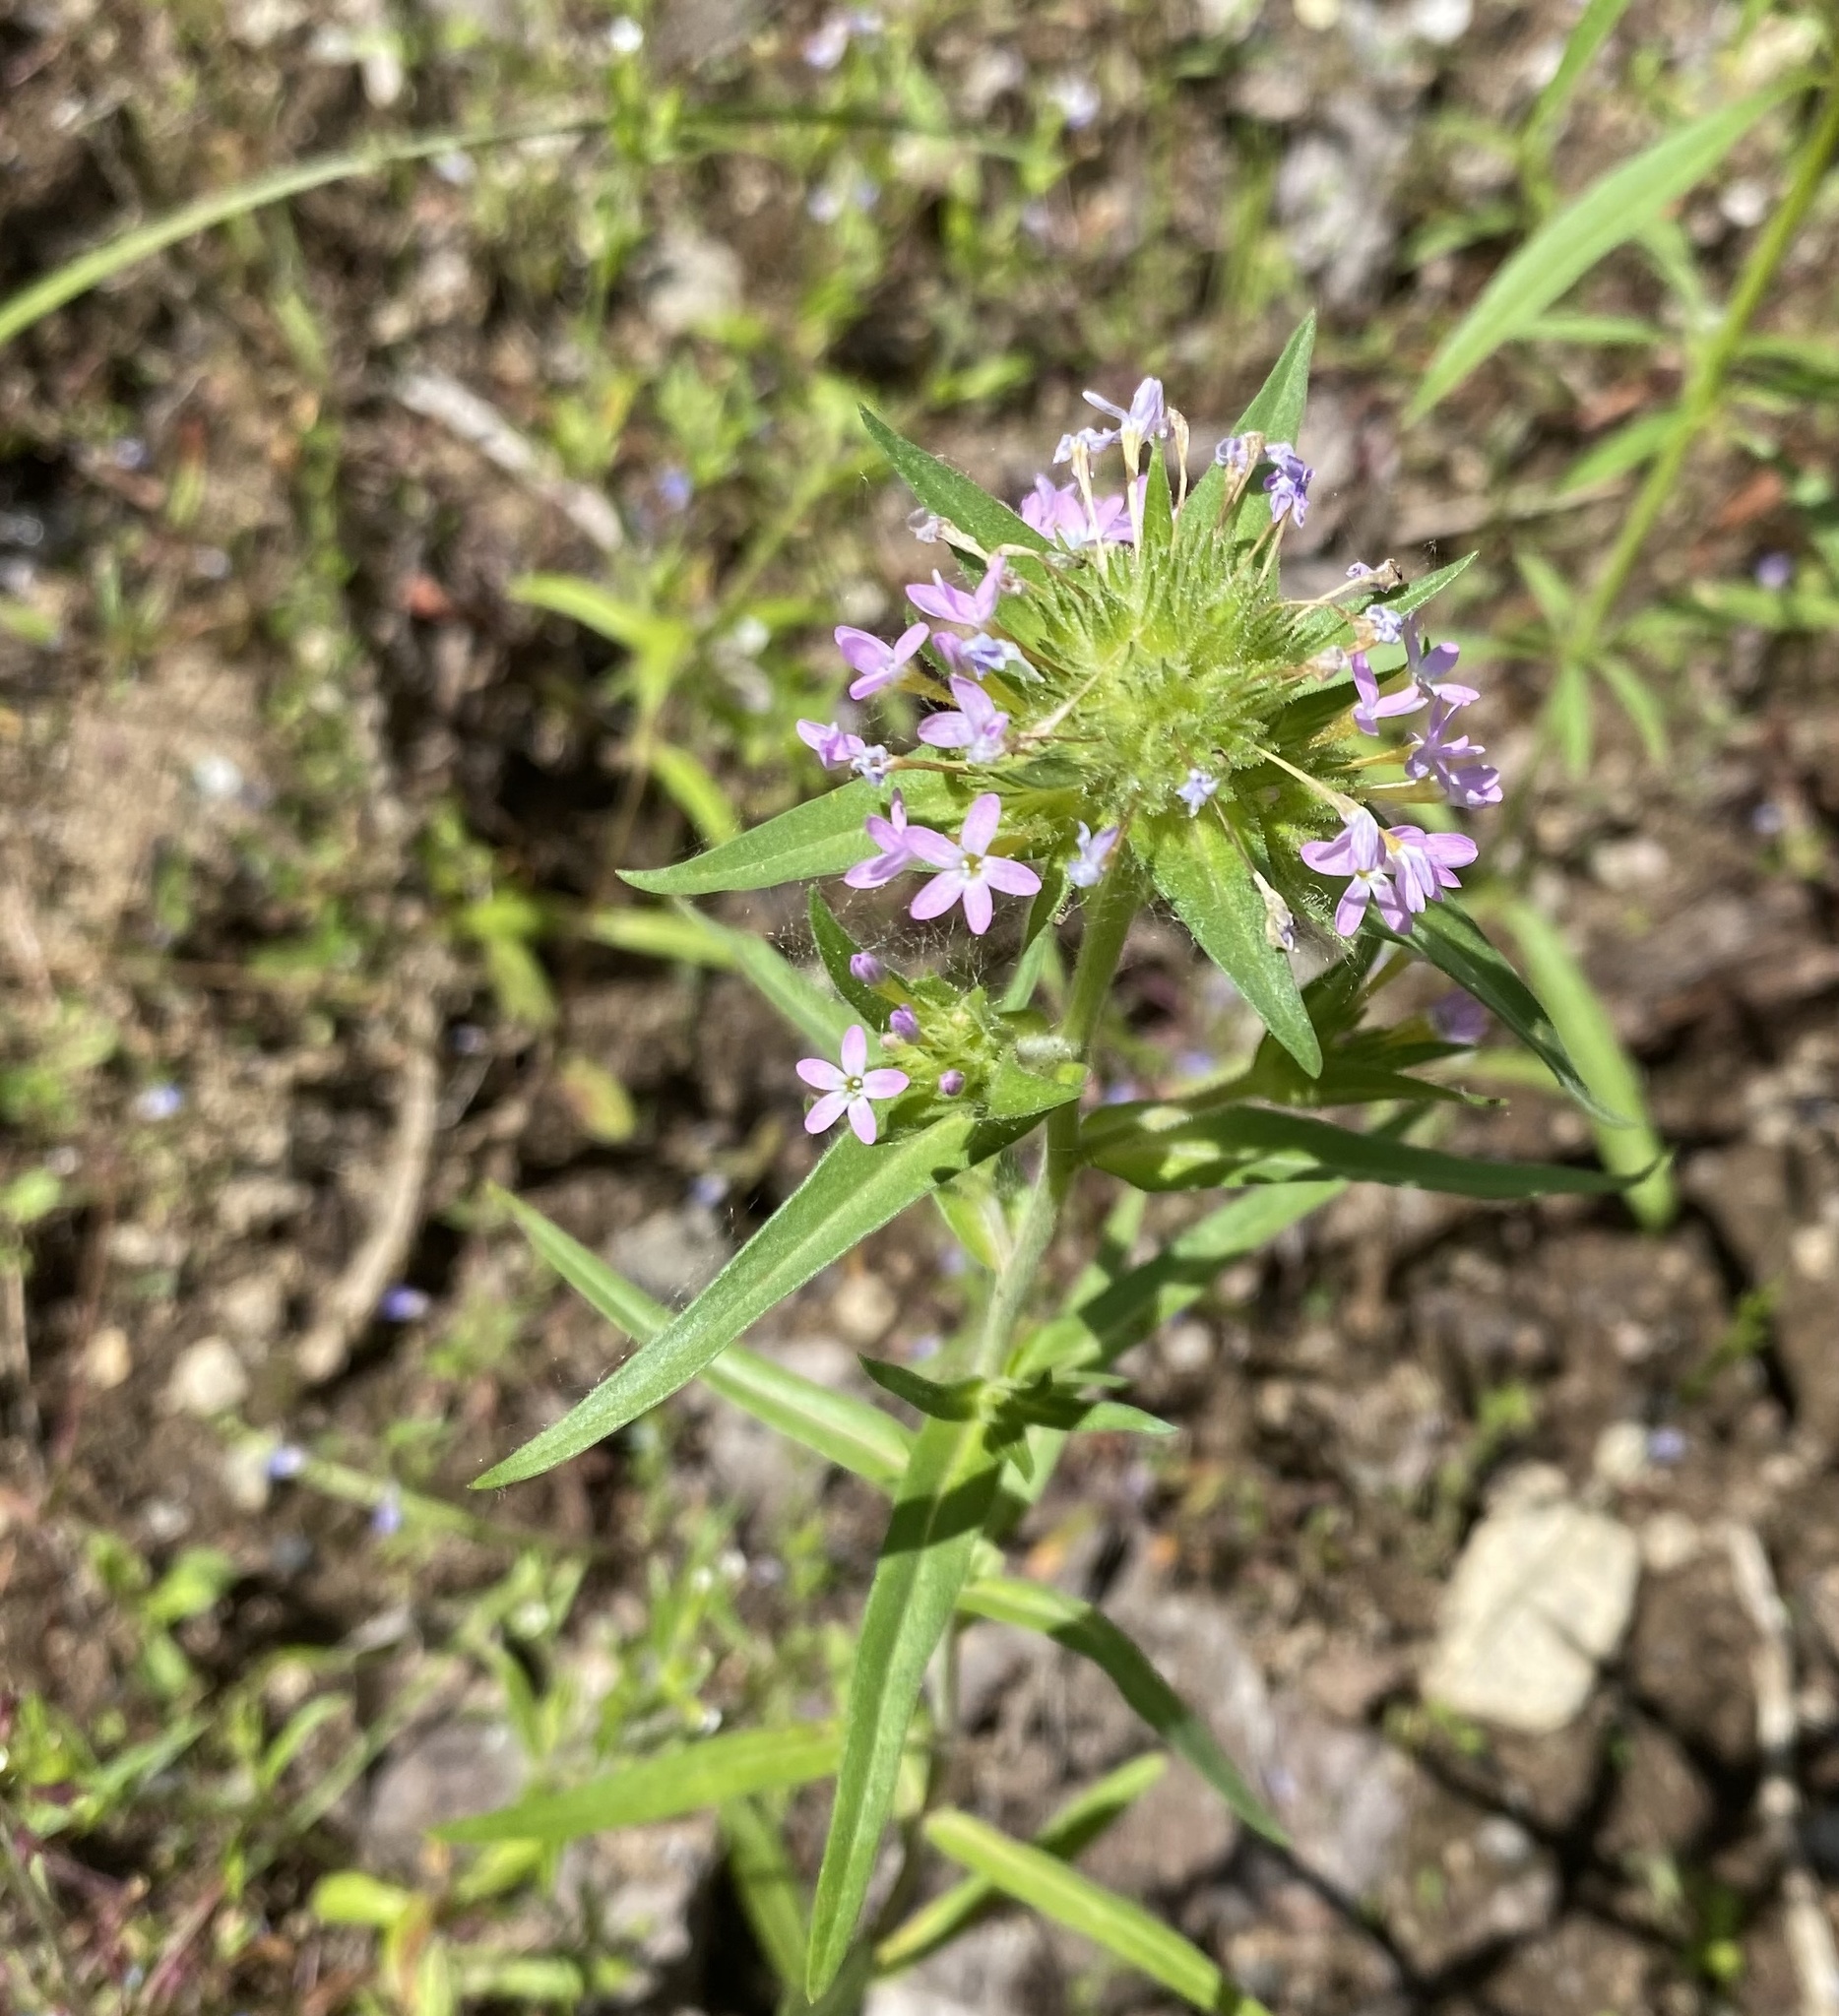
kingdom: Plantae
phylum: Tracheophyta
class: Magnoliopsida
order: Ericales
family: Polemoniaceae
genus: Collomia
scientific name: Collomia linearis
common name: Tiny trumpet
